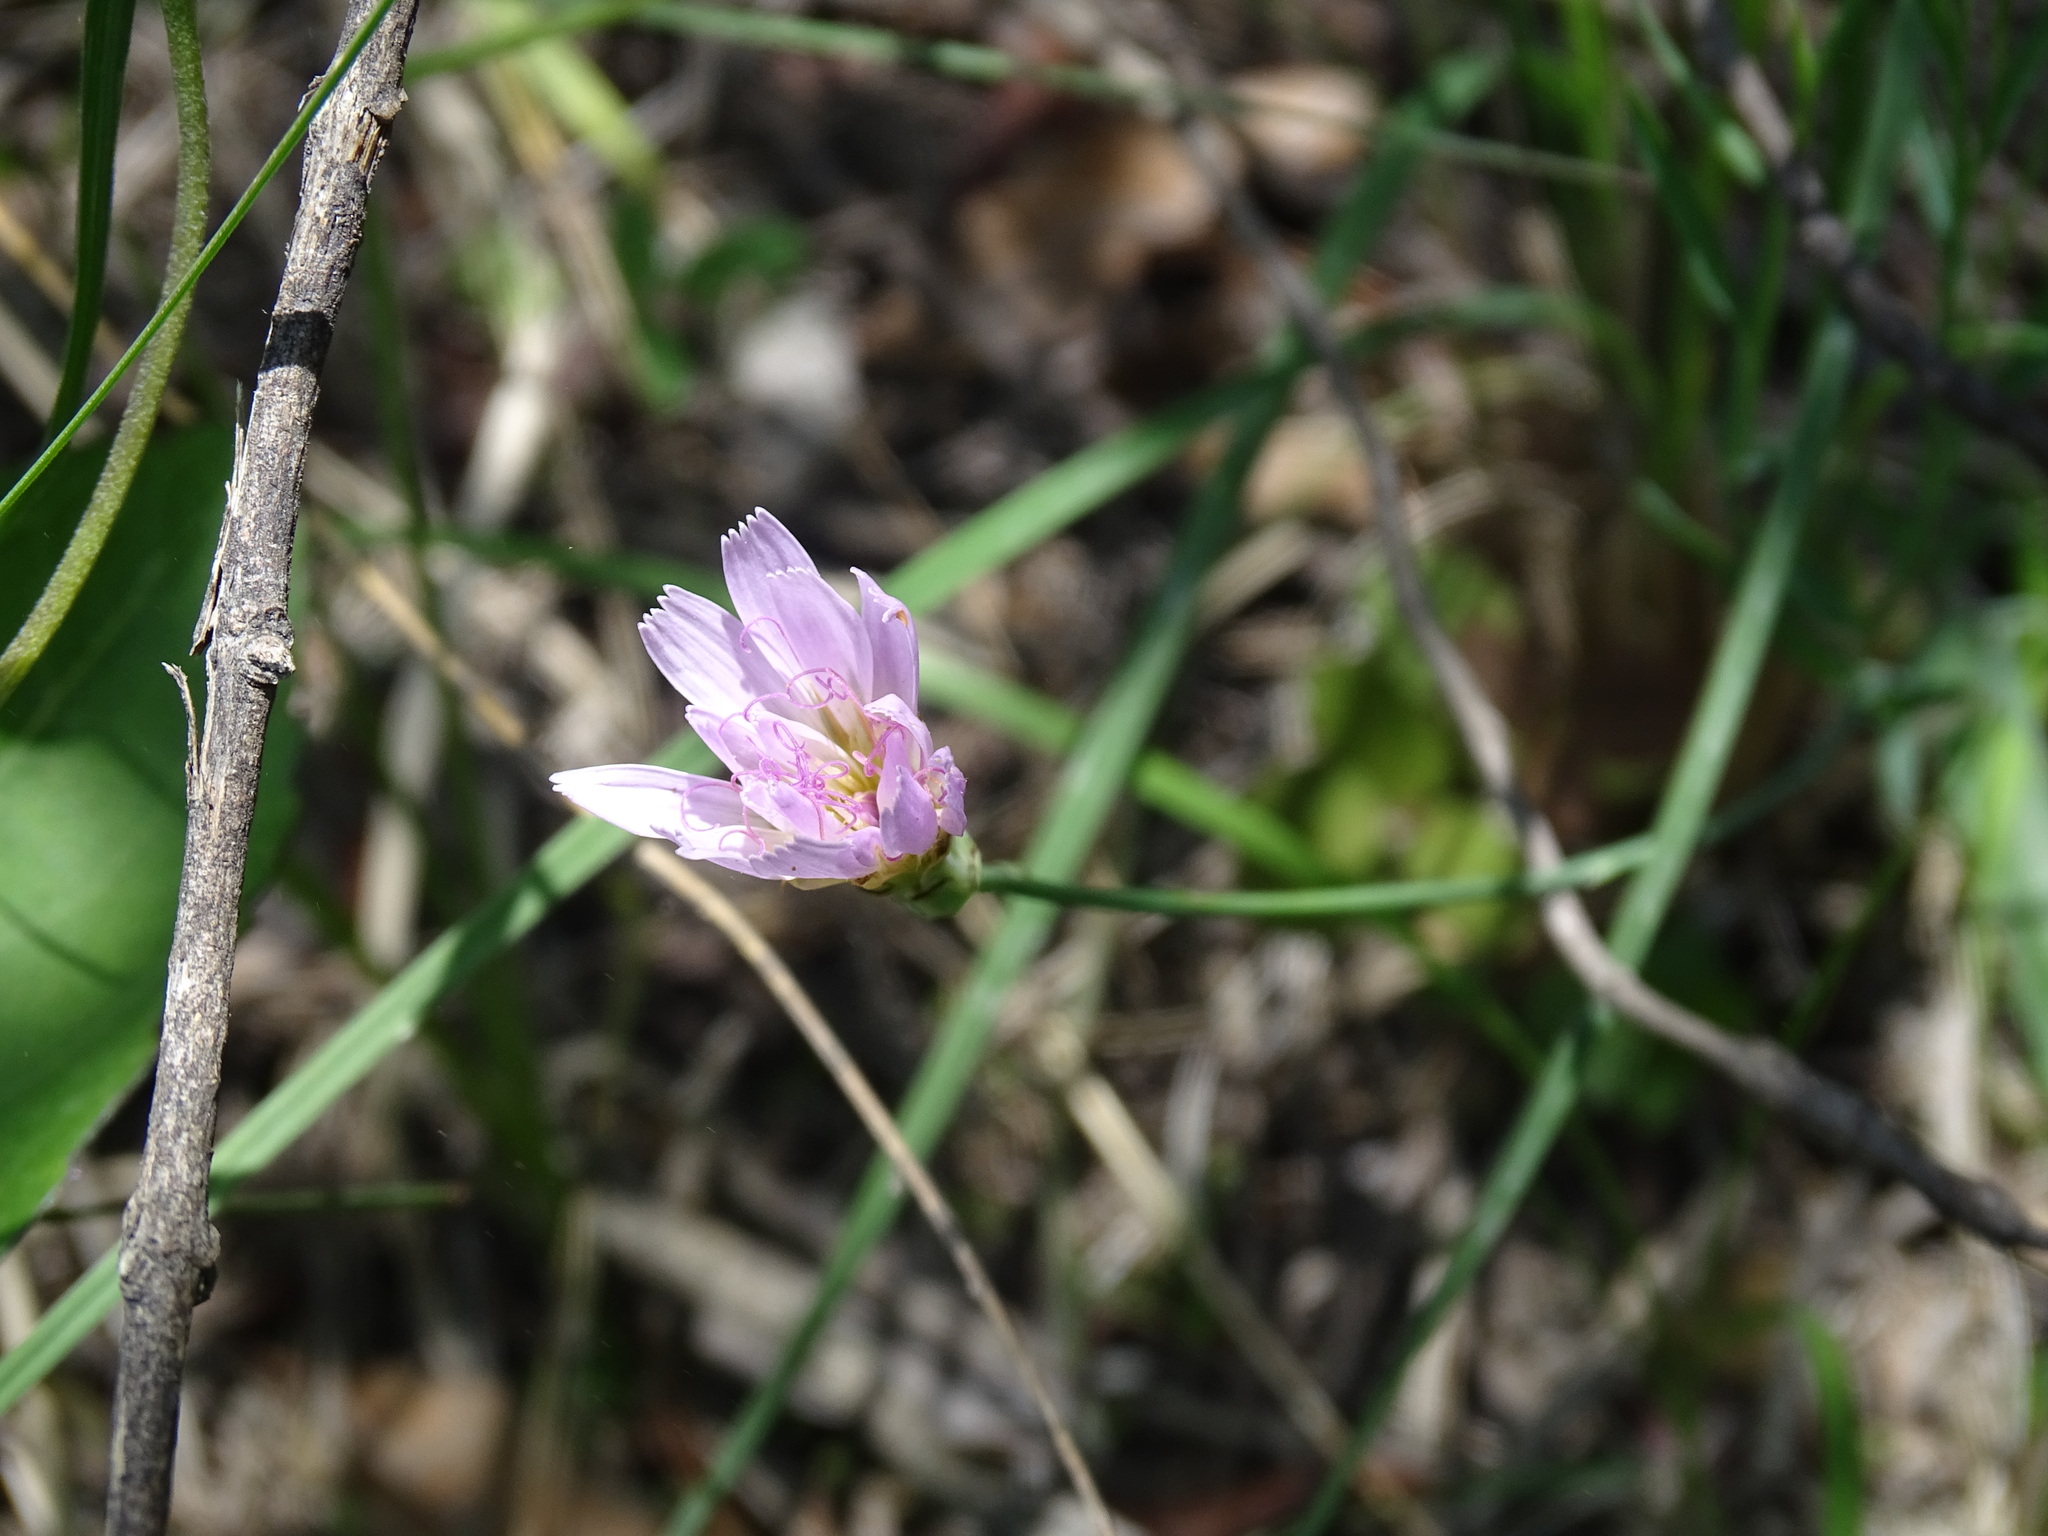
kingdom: Plantae
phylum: Tracheophyta
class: Magnoliopsida
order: Asterales
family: Asteraceae
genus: Pinaropappus
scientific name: Pinaropappus roseus
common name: Rock-lettuce
